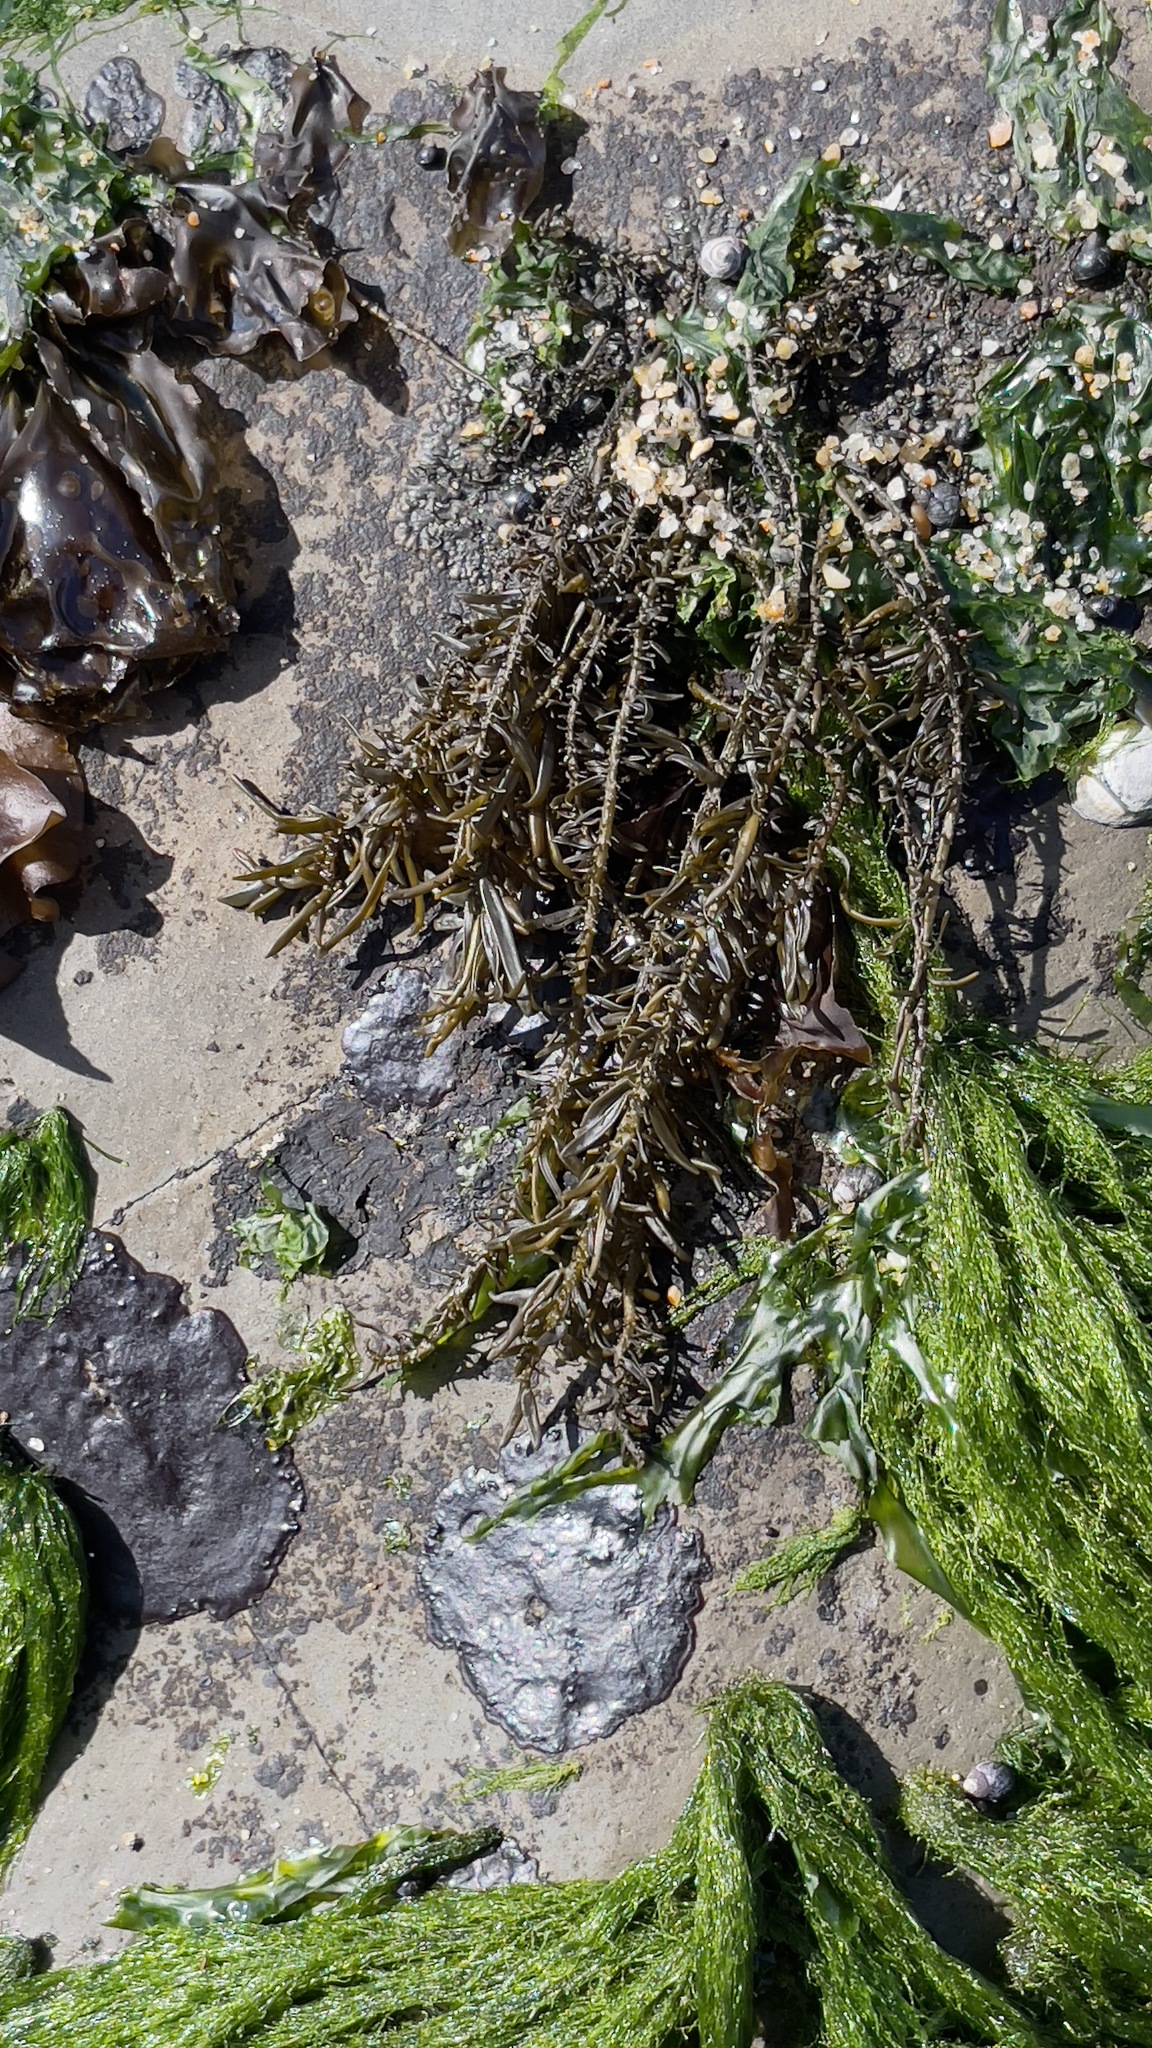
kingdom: Chromista
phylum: Ochrophyta
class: Phaeophyceae
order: Scytosiphonales
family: Scytosiphonaceae
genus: Analipus
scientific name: Analipus japonicus
